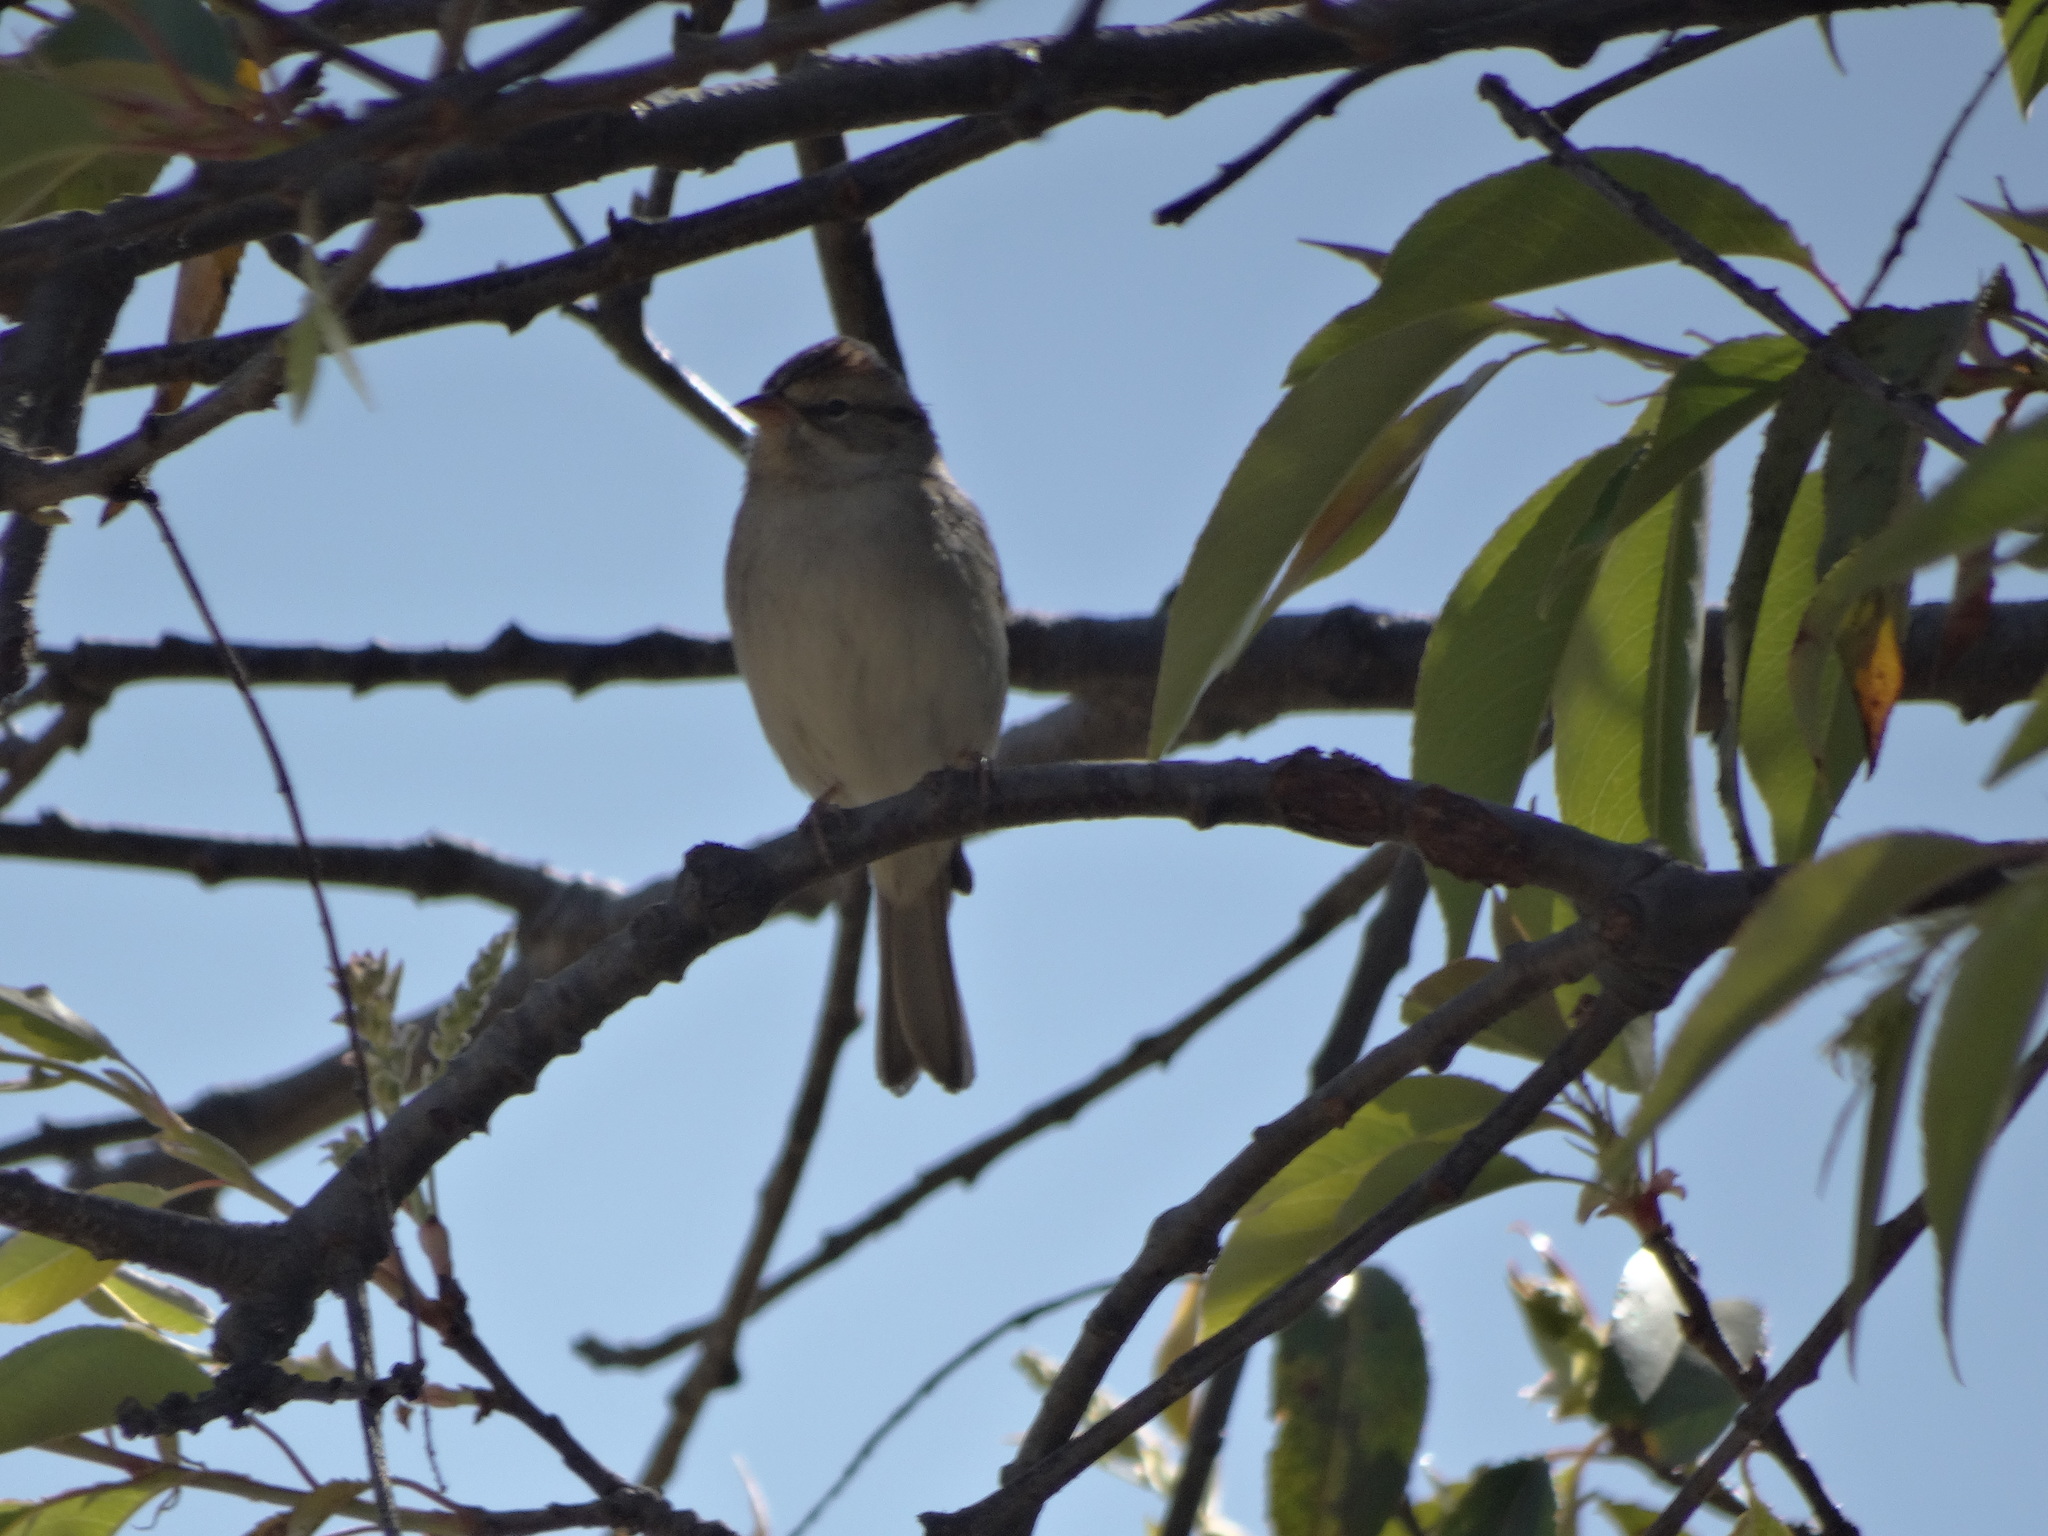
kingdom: Animalia
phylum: Chordata
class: Aves
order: Passeriformes
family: Passerellidae
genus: Spizella
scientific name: Spizella passerina
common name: Chipping sparrow
